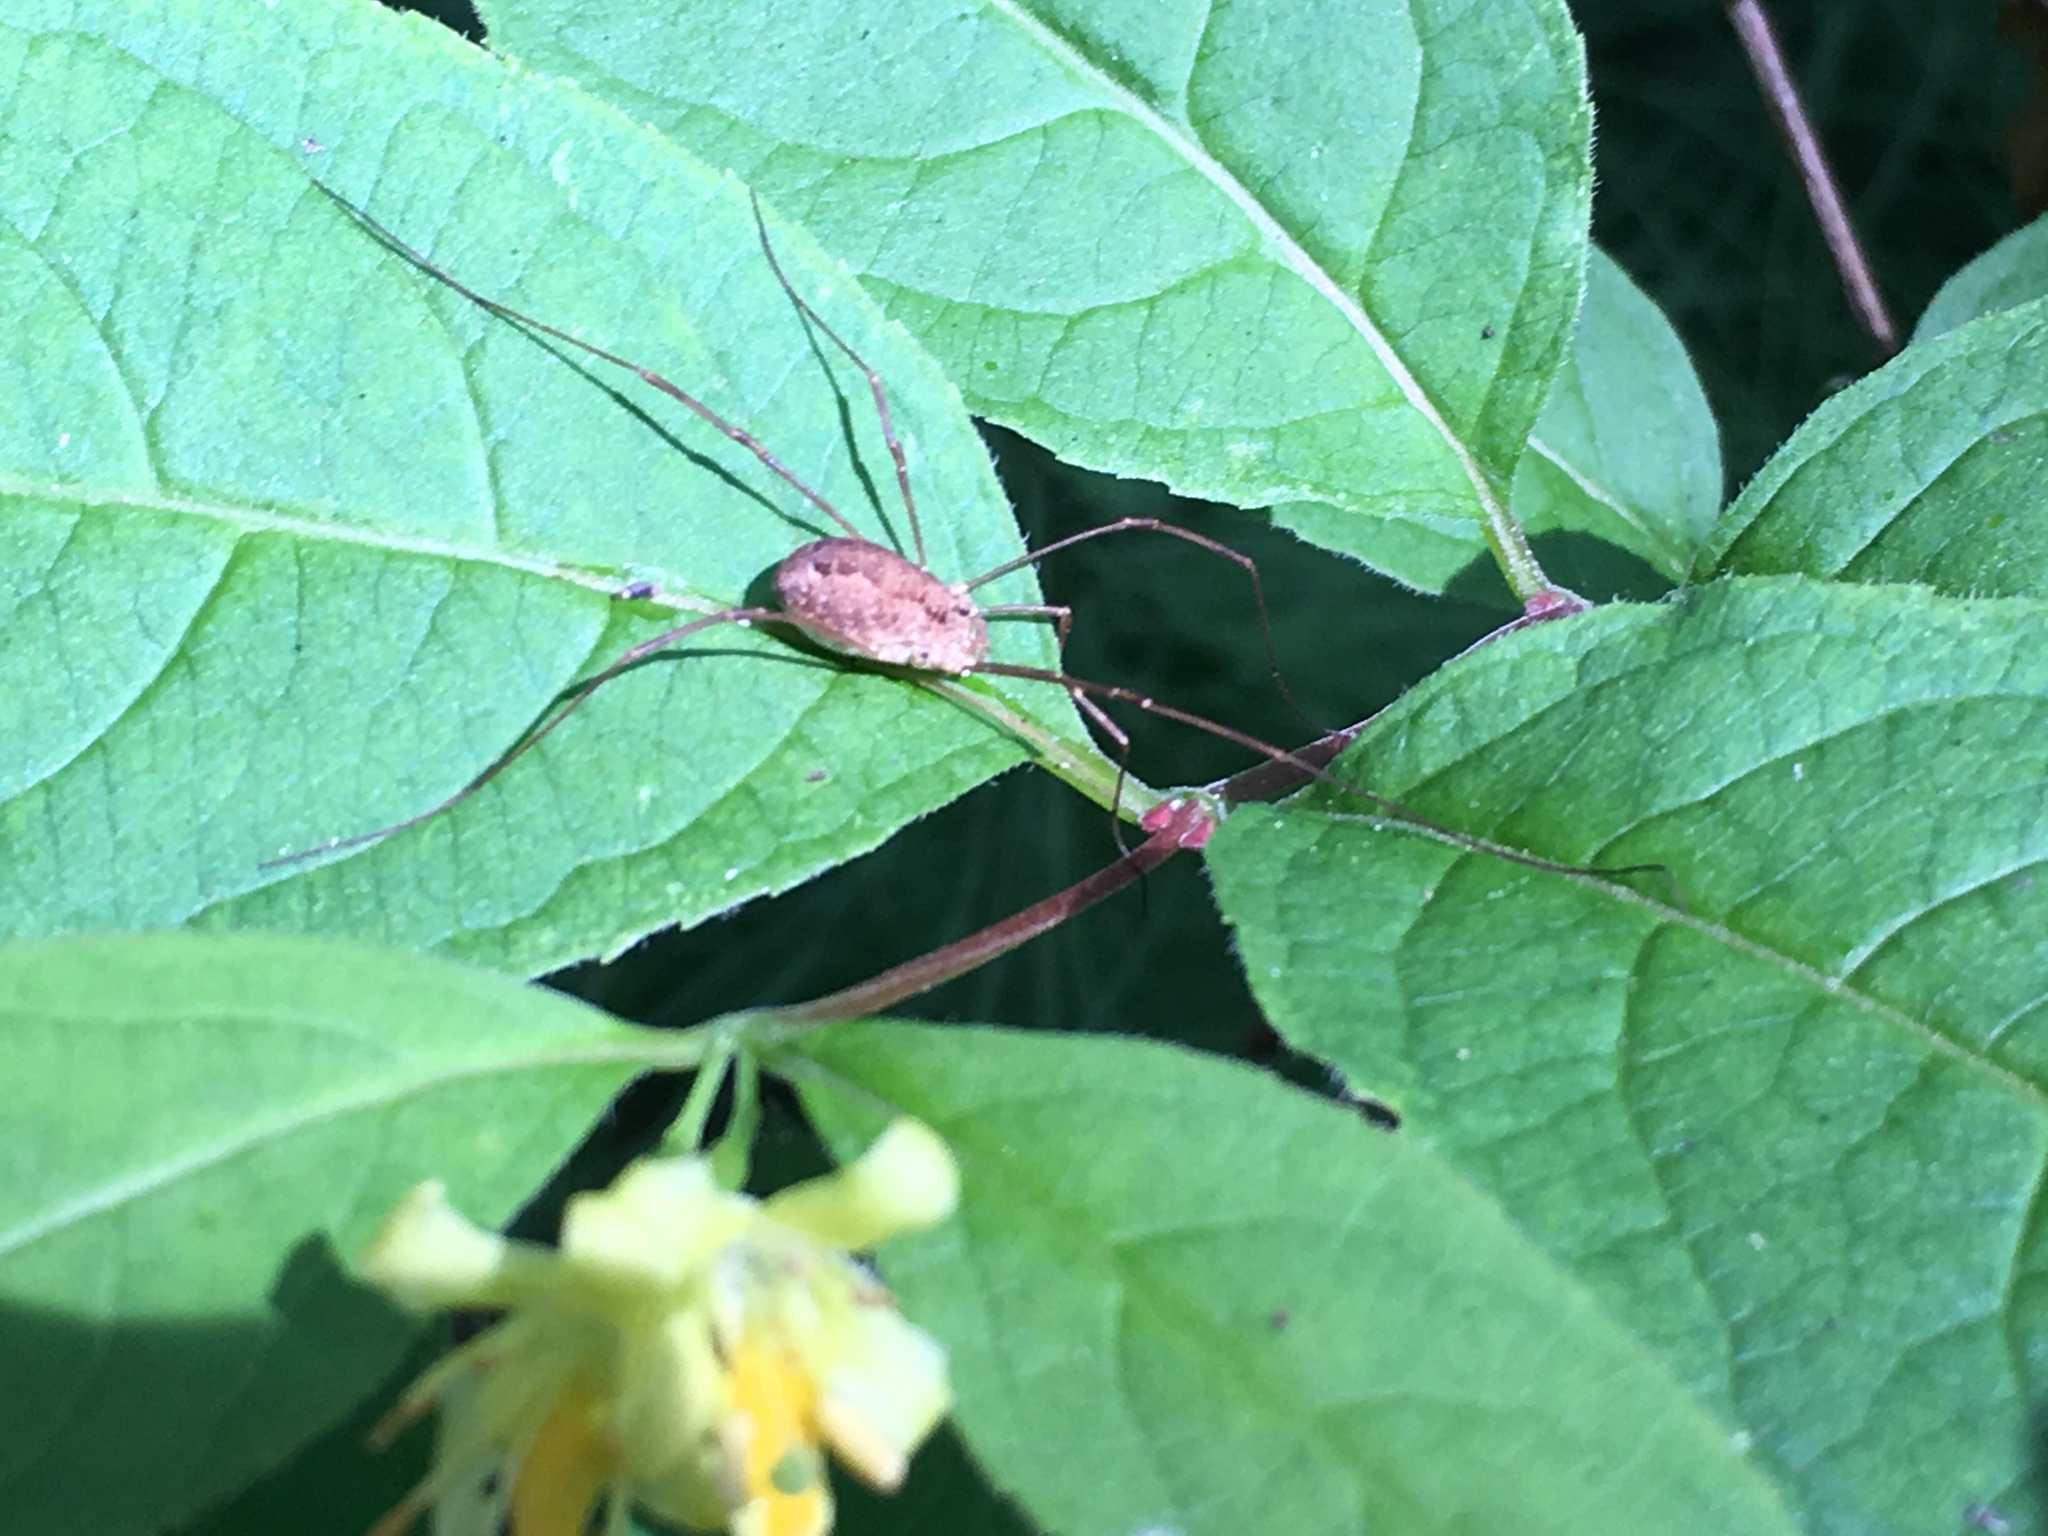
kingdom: Animalia
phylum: Arthropoda
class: Arachnida
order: Opiliones
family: Phalangiidae
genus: Rilaena
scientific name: Rilaena triangularis
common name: Spring harvestman
